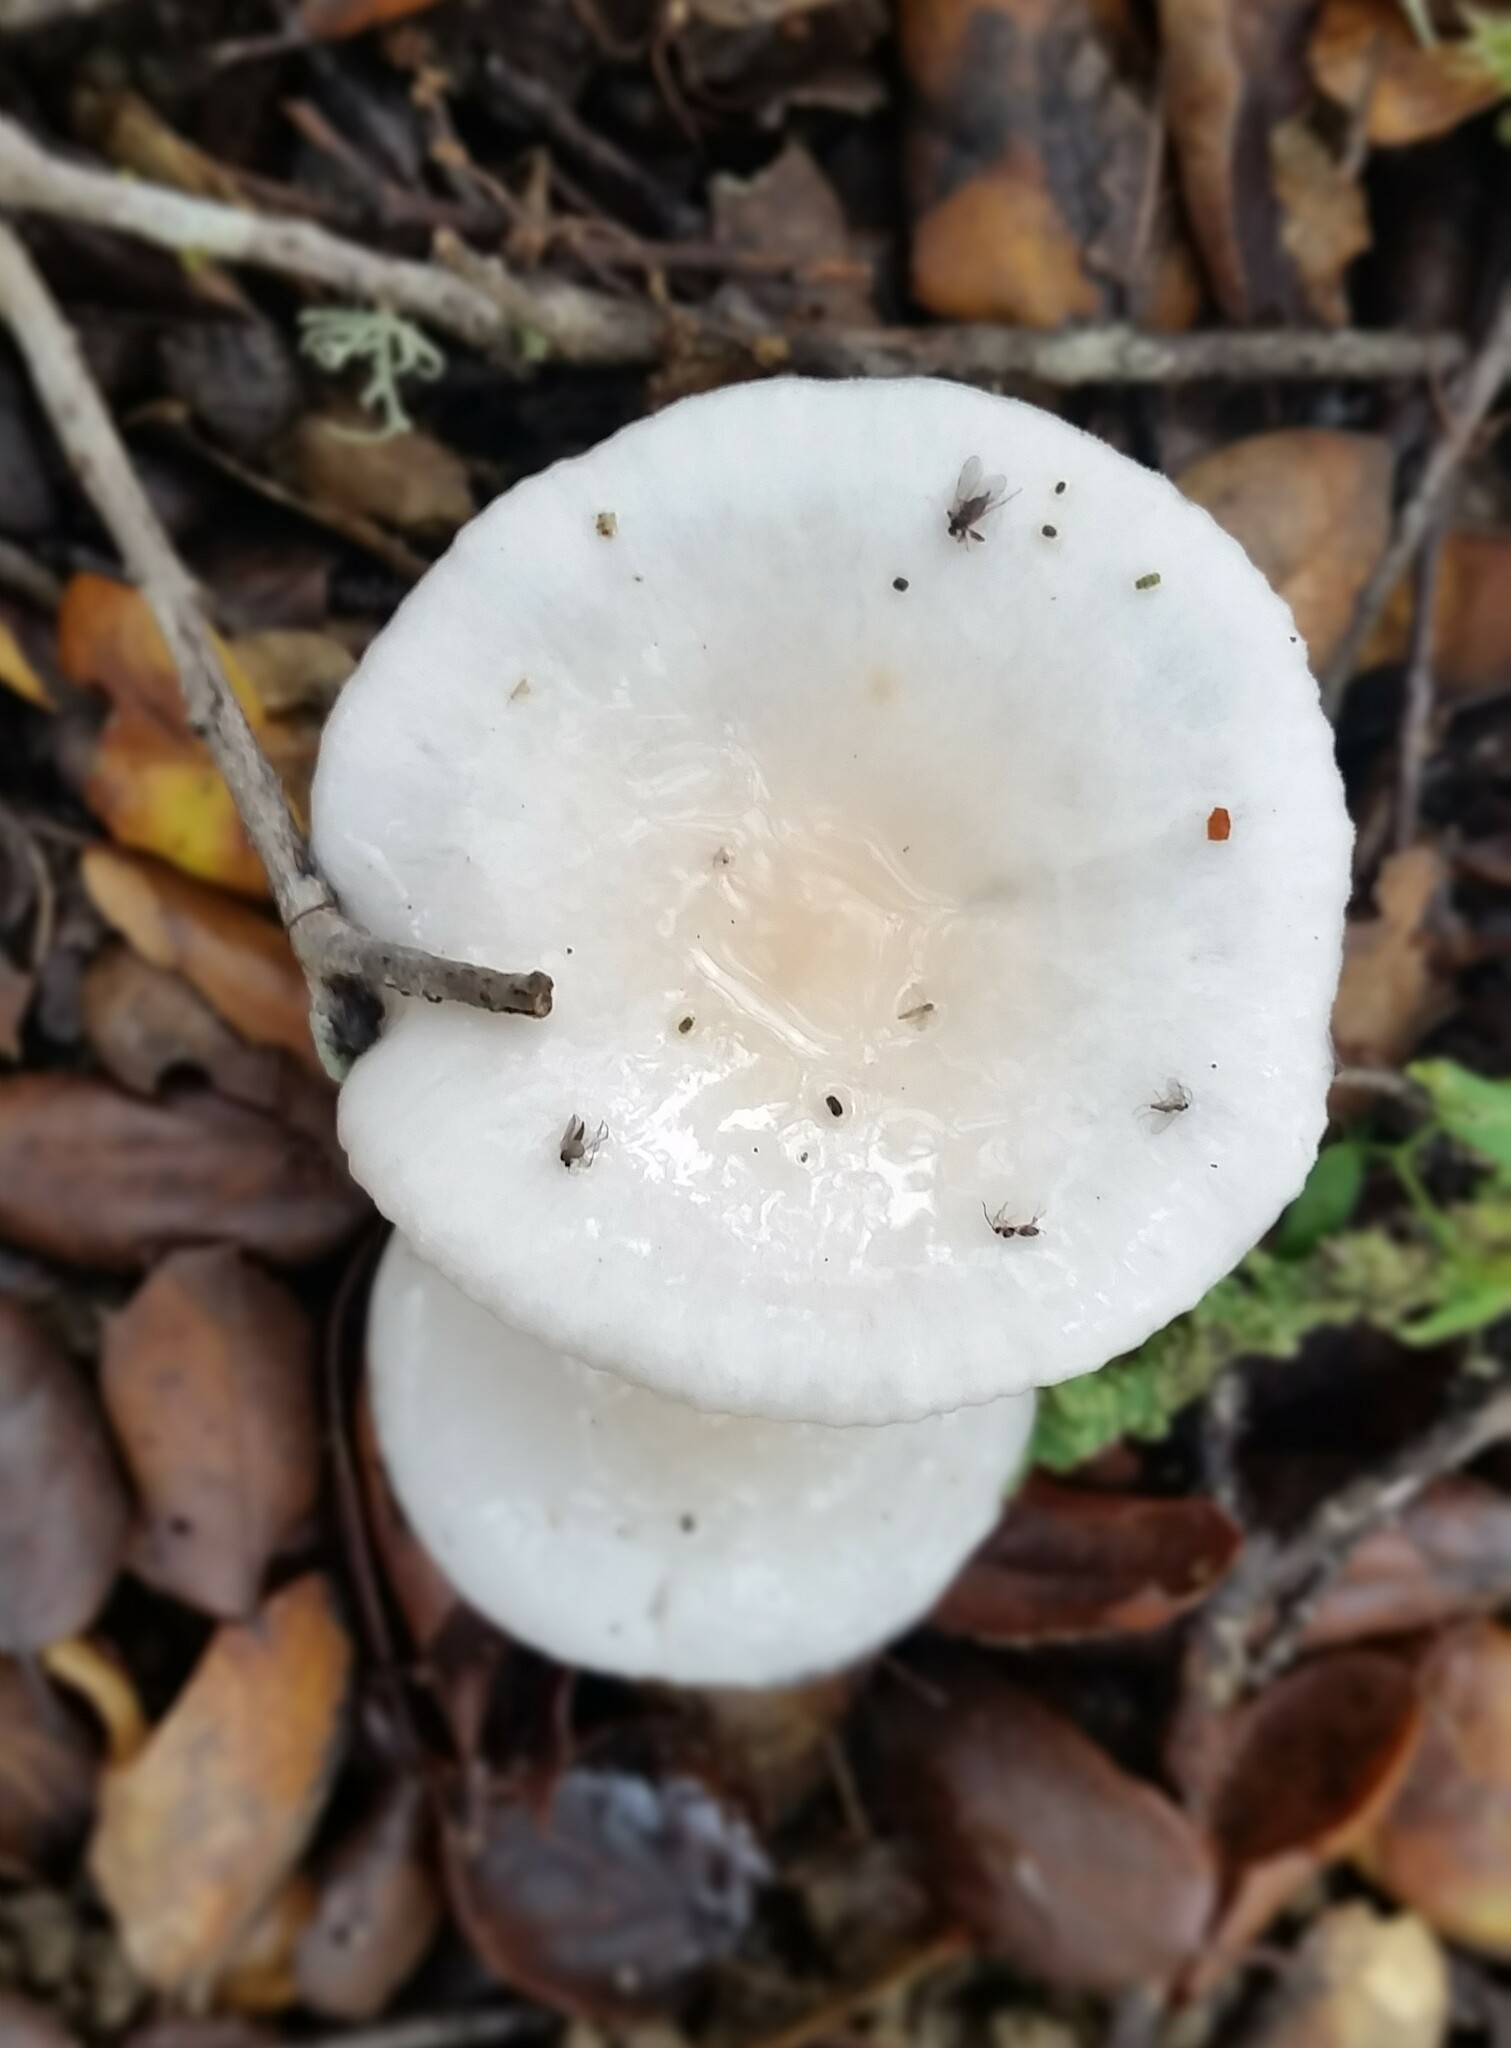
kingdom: Fungi
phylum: Basidiomycota
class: Agaricomycetes
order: Agaricales
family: Hygrophoraceae
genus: Hygrophorus
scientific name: Hygrophorus eburneus
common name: Ivory wax-cap
